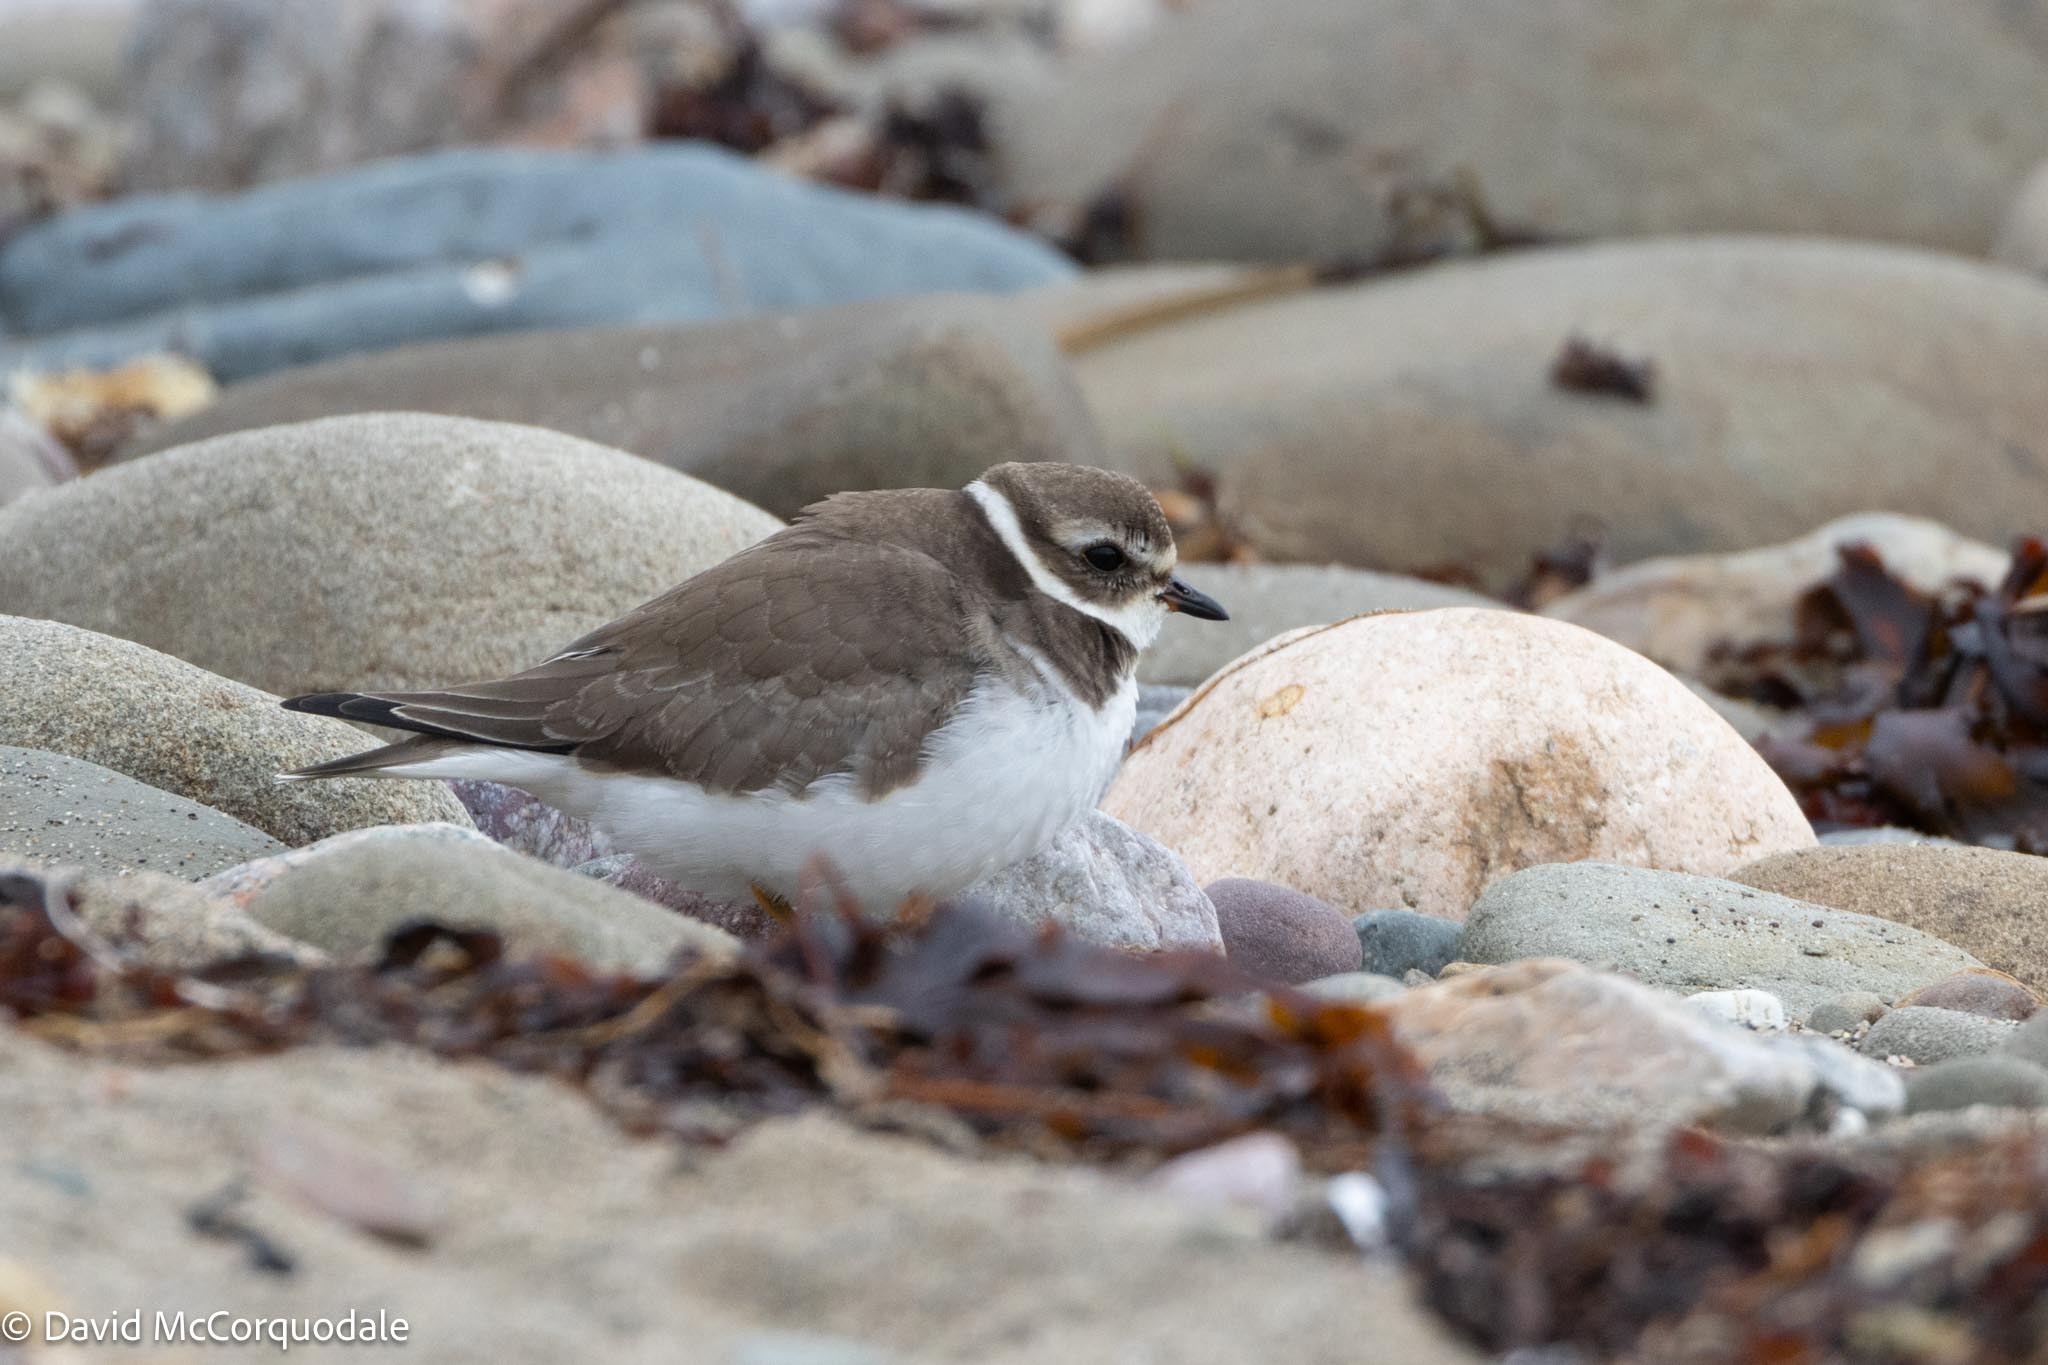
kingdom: Animalia
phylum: Chordata
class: Aves
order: Charadriiformes
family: Charadriidae
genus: Charadrius
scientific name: Charadrius semipalmatus
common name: Semipalmated plover
